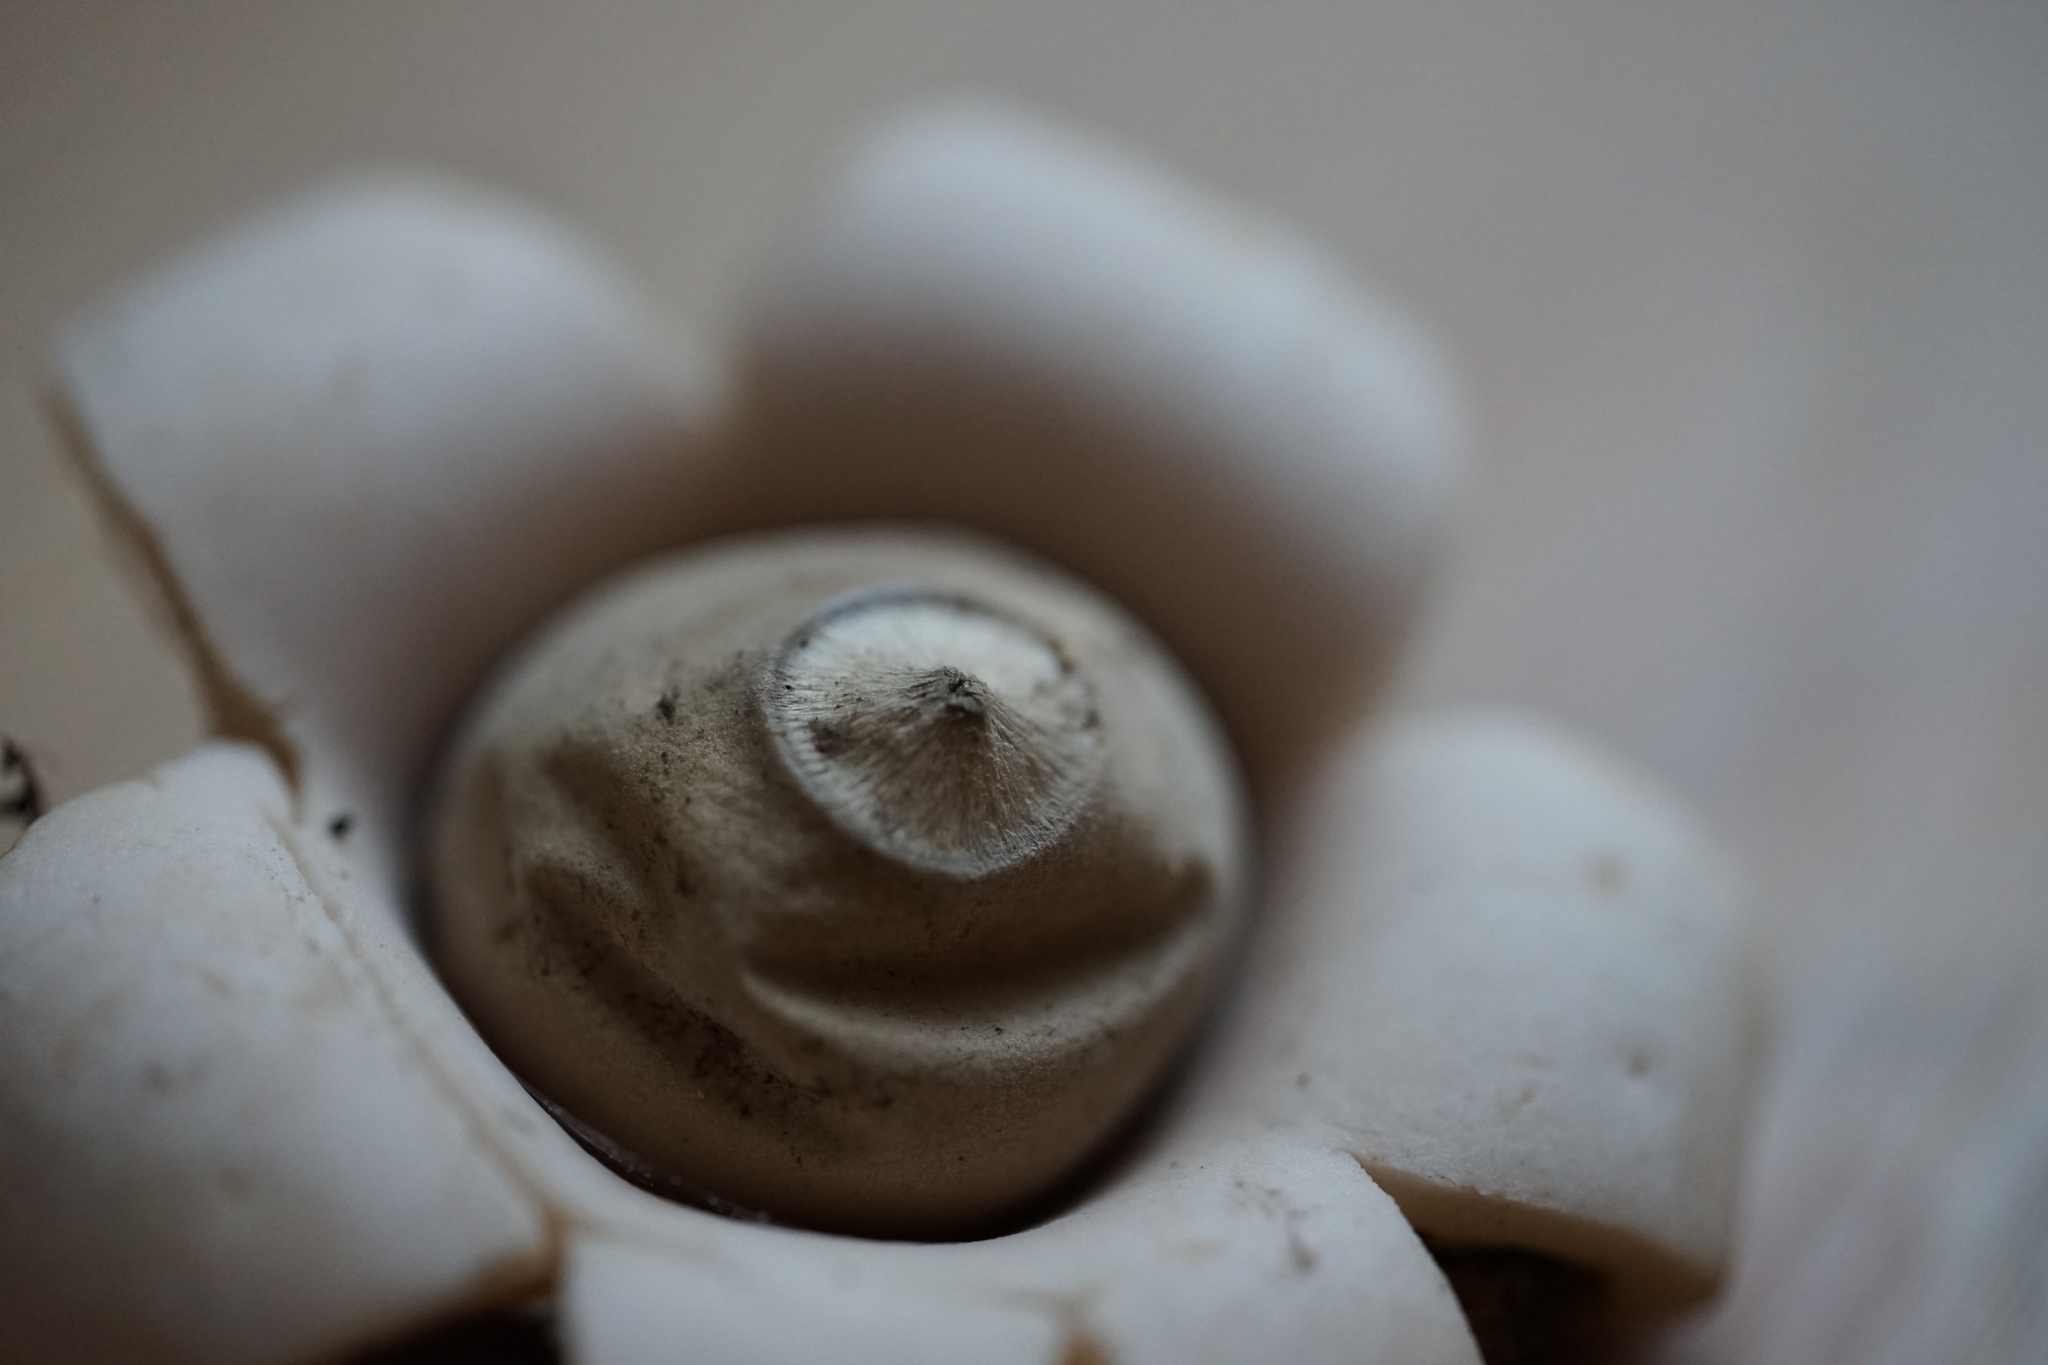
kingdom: Fungi
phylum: Basidiomycota
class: Agaricomycetes
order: Geastrales
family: Geastraceae
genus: Geastrum
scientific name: Geastrum saccatum
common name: Rounded earthstar
